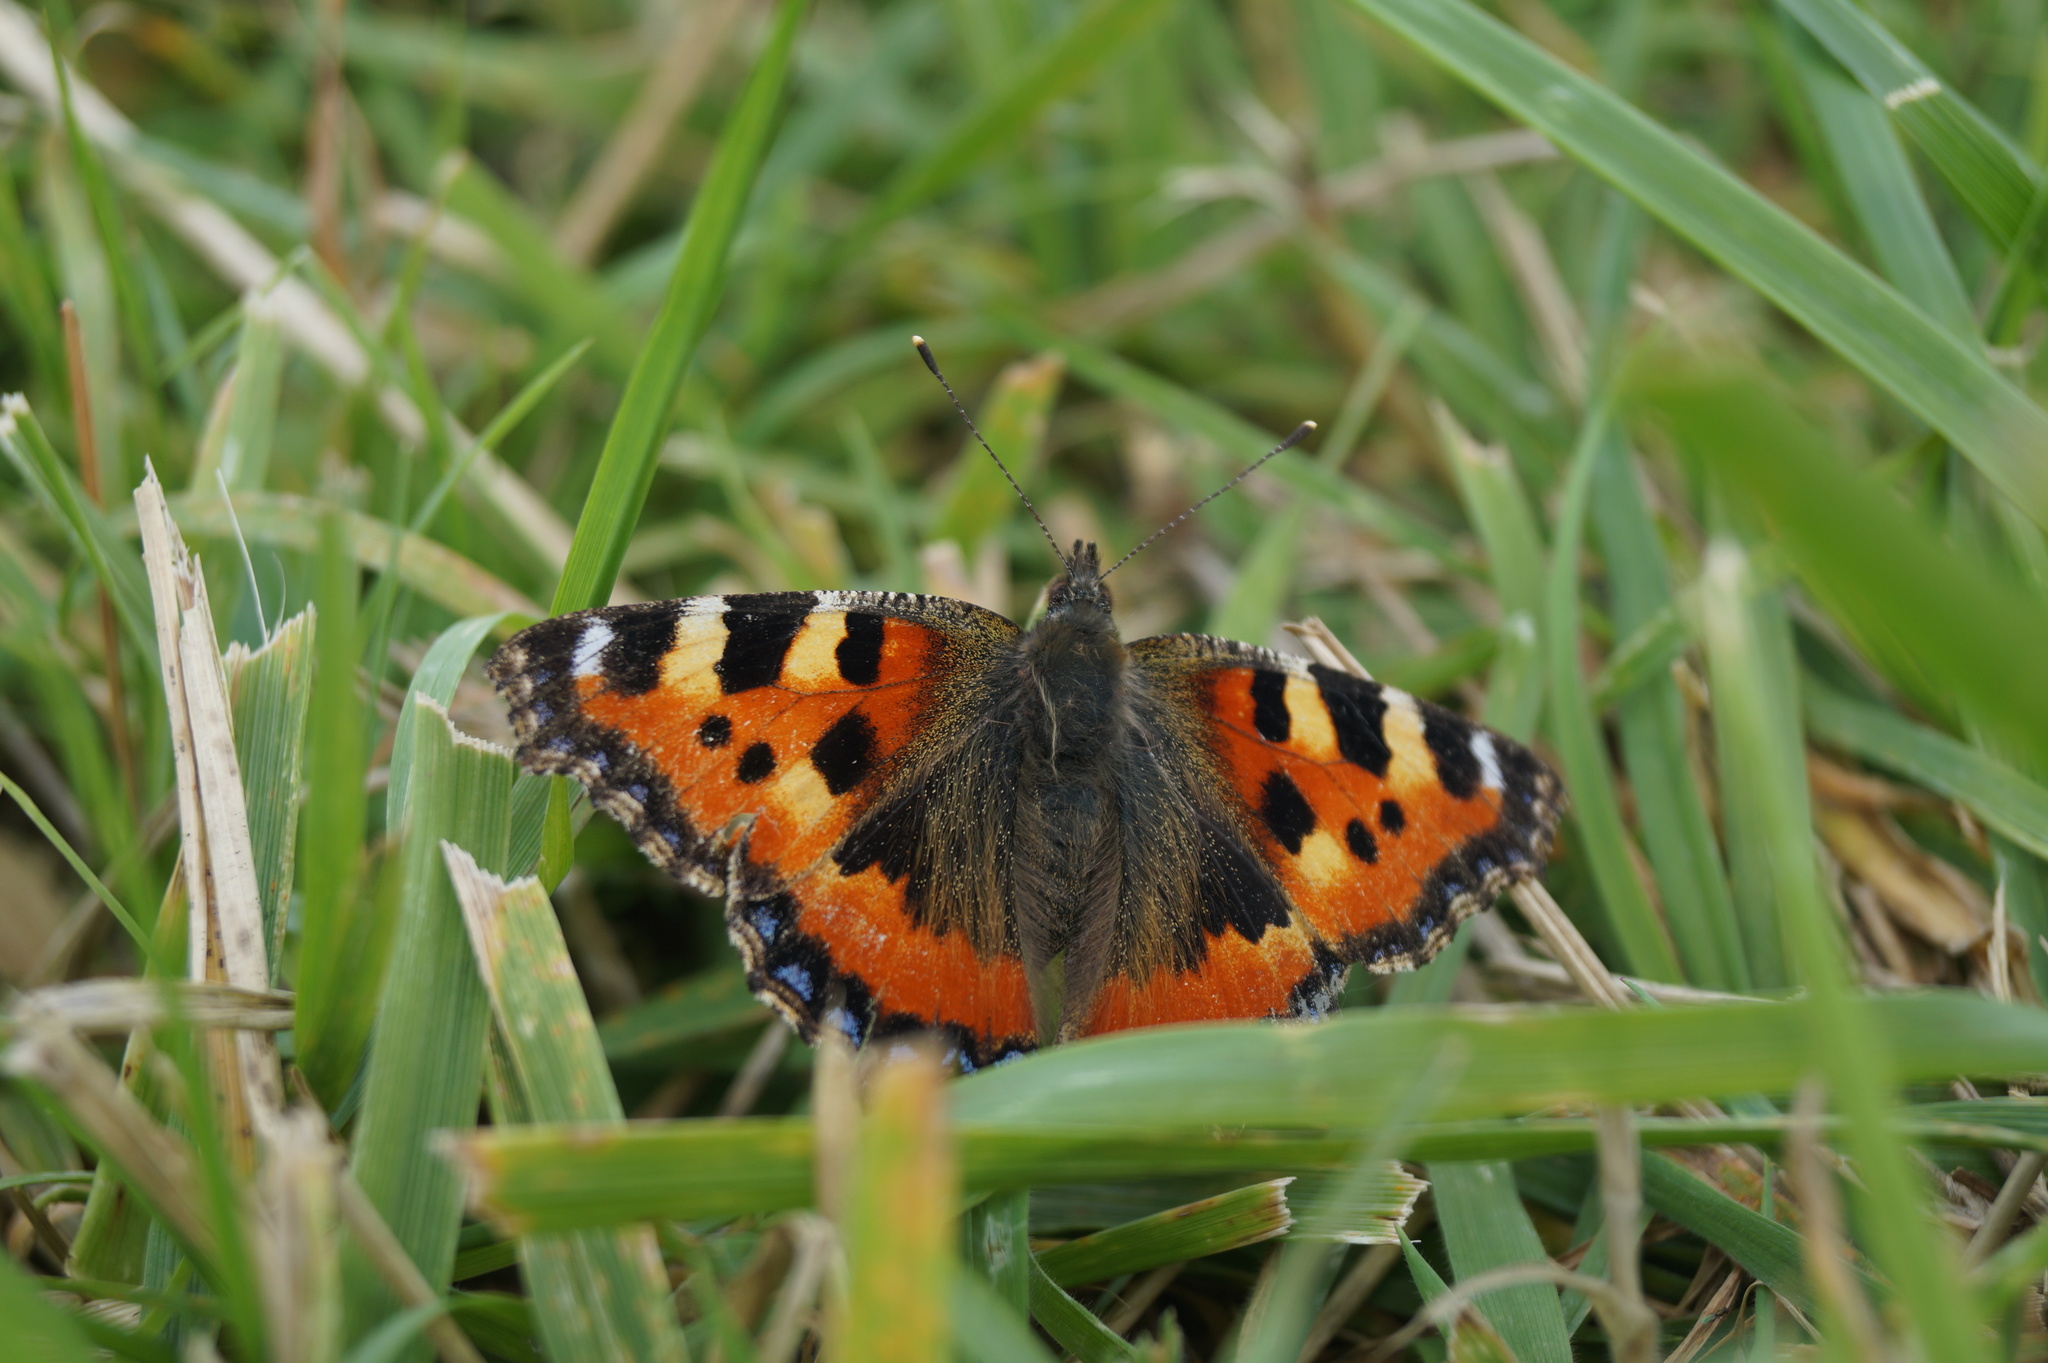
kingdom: Animalia
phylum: Arthropoda
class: Insecta
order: Lepidoptera
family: Nymphalidae
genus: Aglais
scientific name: Aglais urticae
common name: Small tortoiseshell
